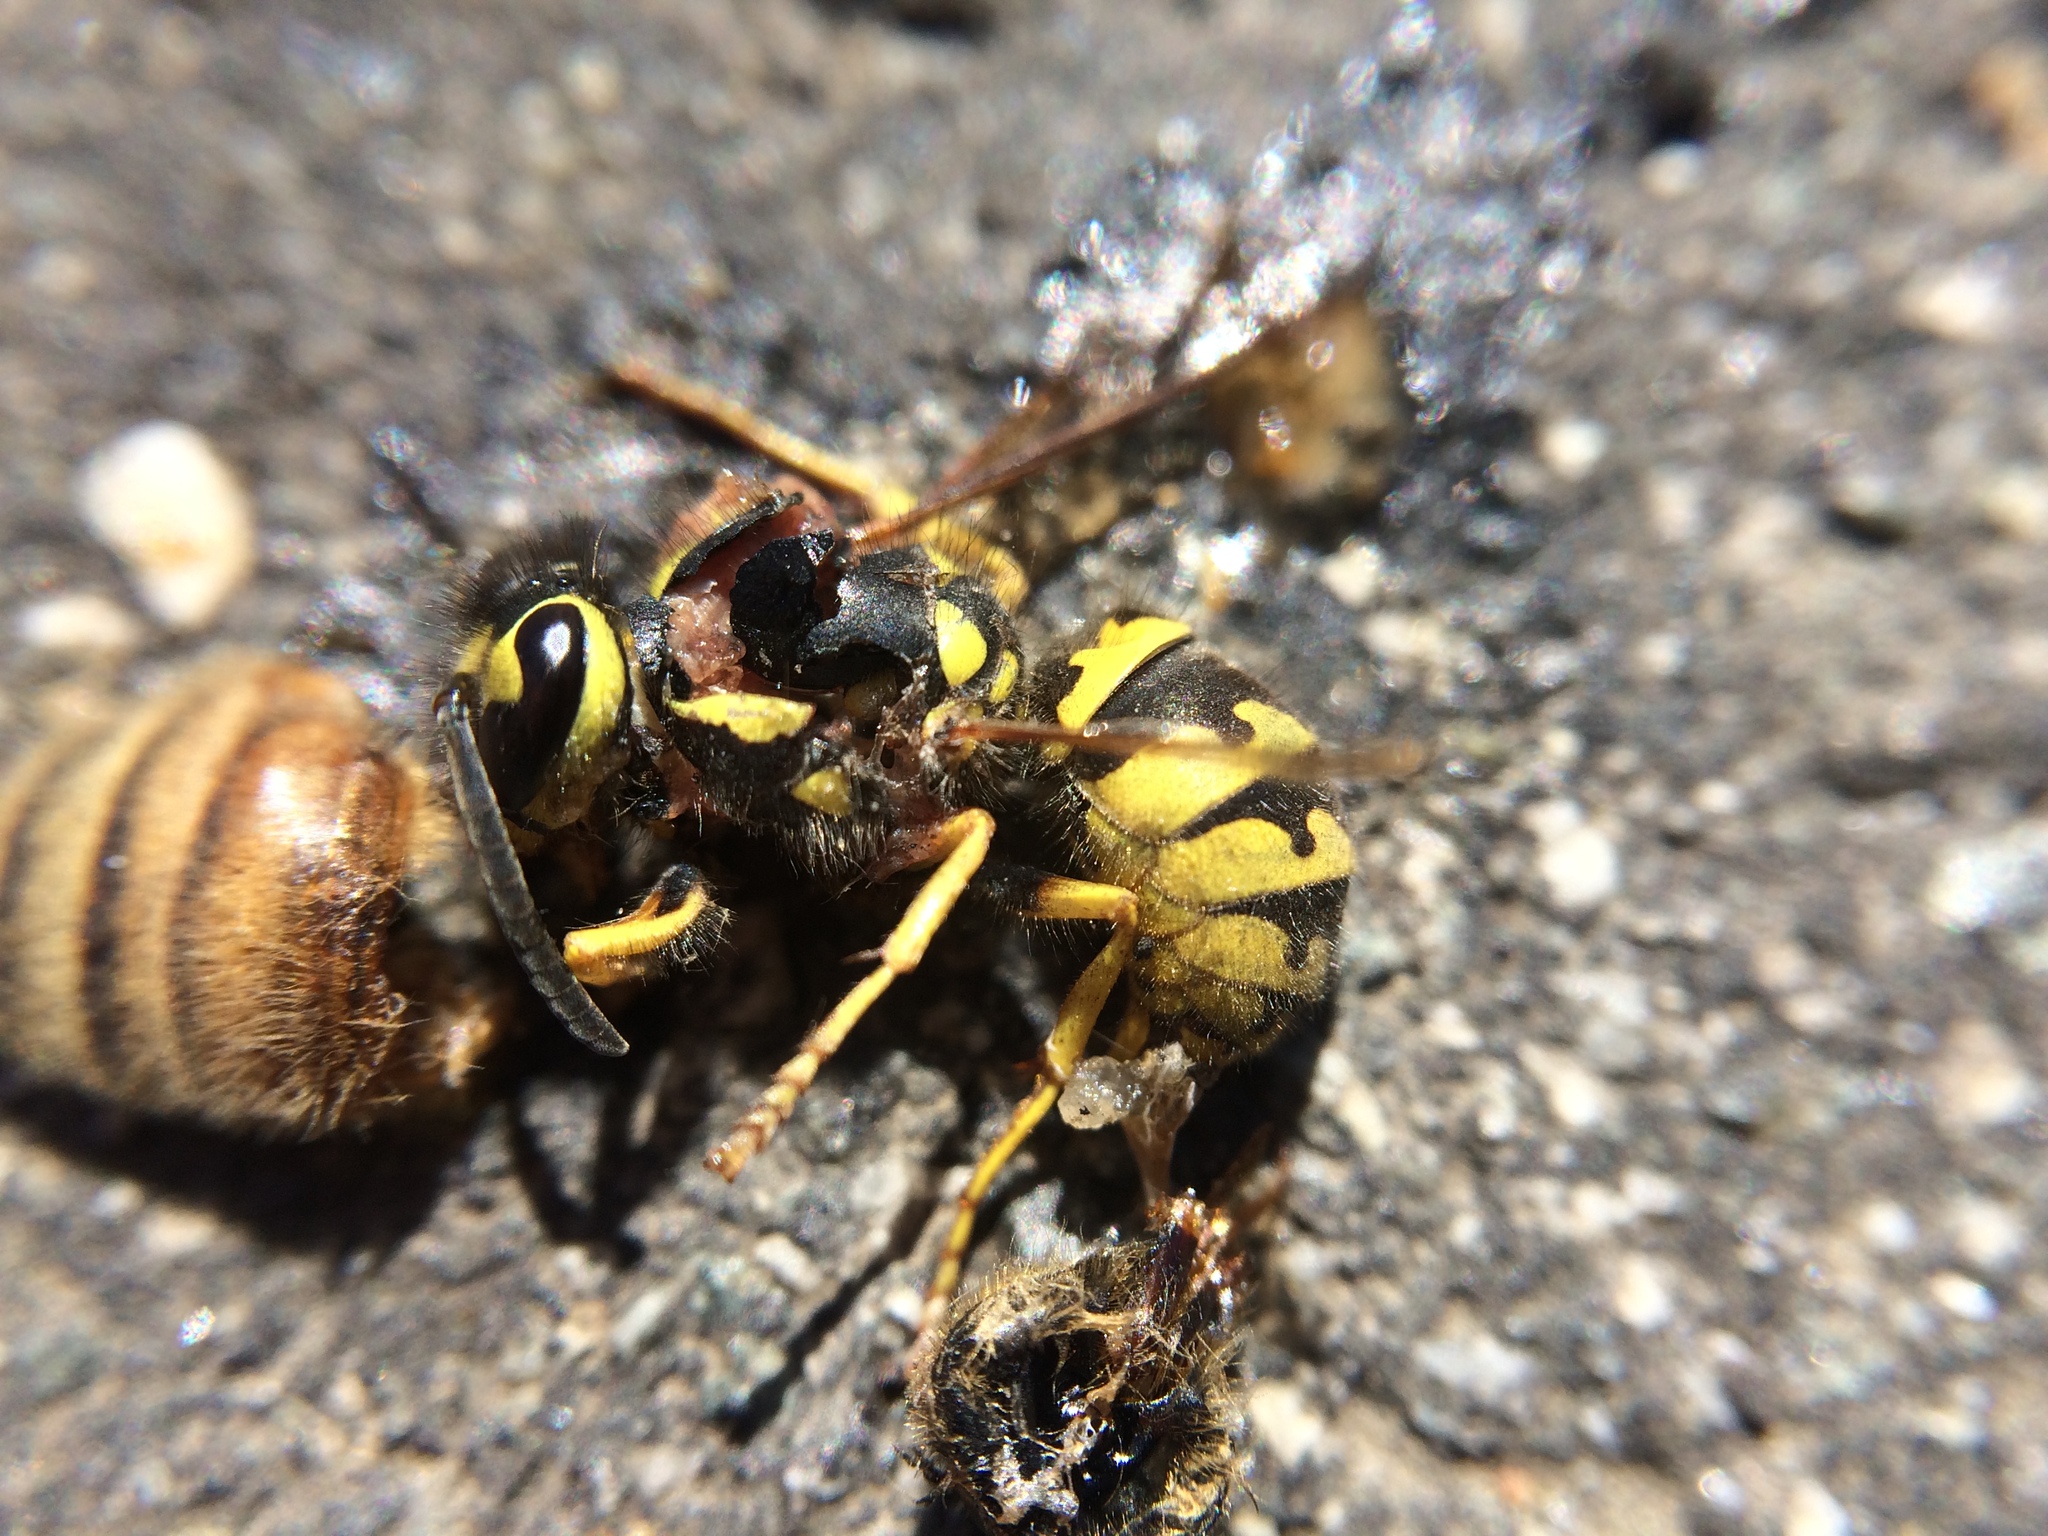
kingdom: Animalia
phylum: Arthropoda
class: Insecta
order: Hymenoptera
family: Vespidae
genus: Vespula
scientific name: Vespula pensylvanica
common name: Western yellowjacket
